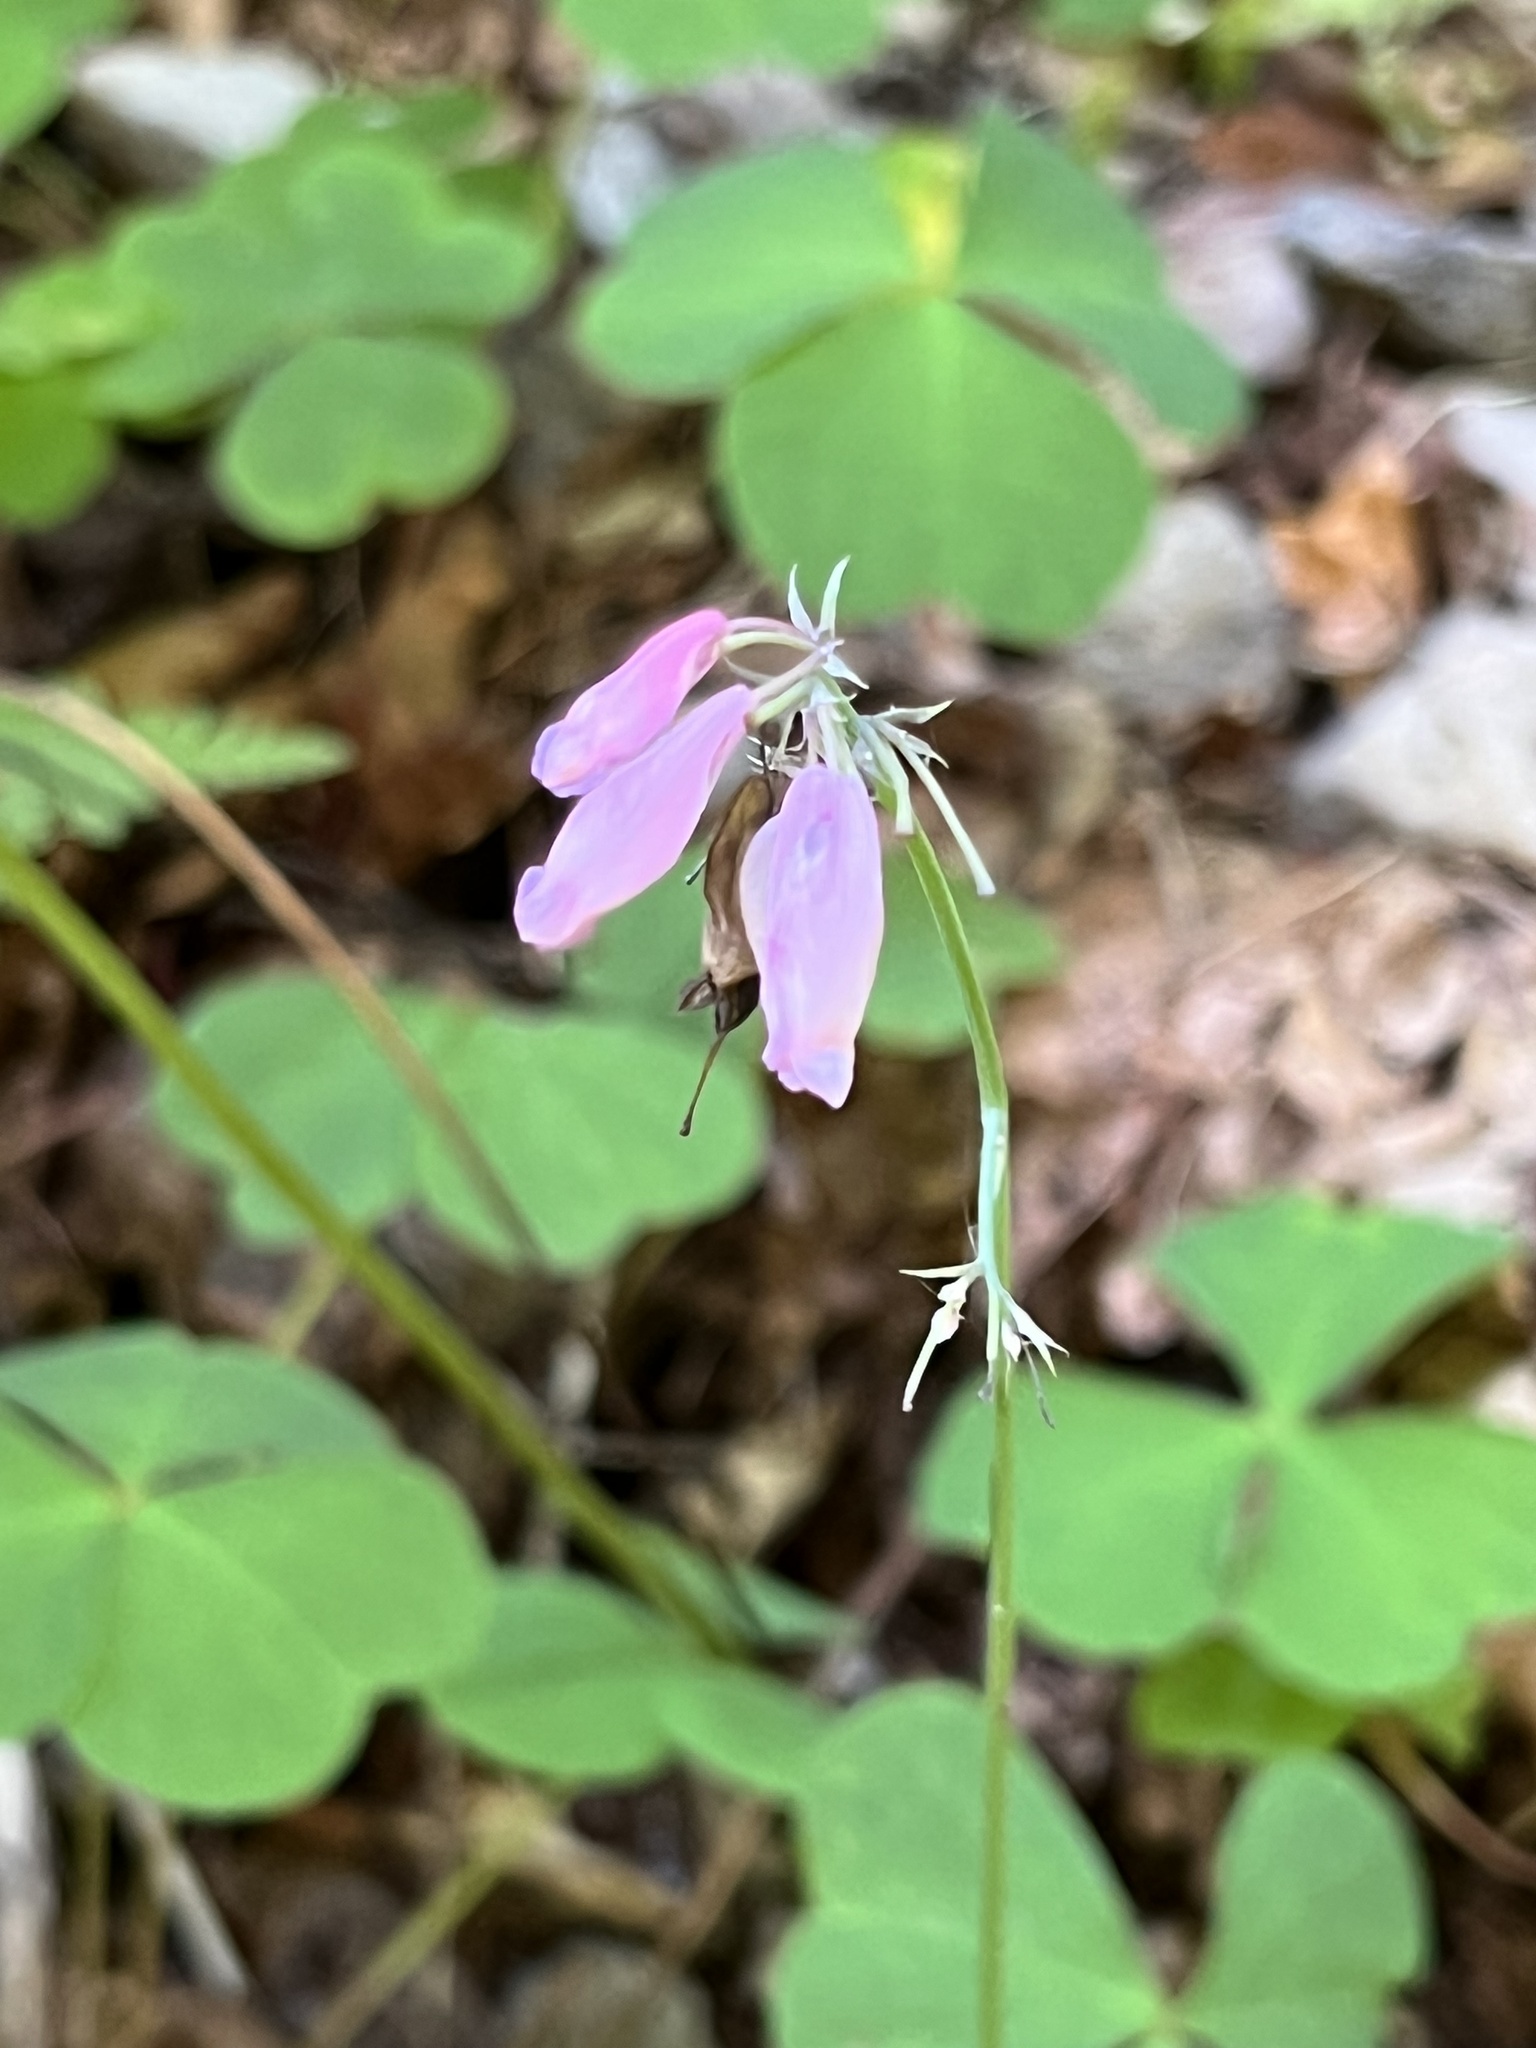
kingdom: Plantae
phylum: Tracheophyta
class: Magnoliopsida
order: Ranunculales
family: Papaveraceae
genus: Dicentra
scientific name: Dicentra formosa
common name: Bleeding-heart
